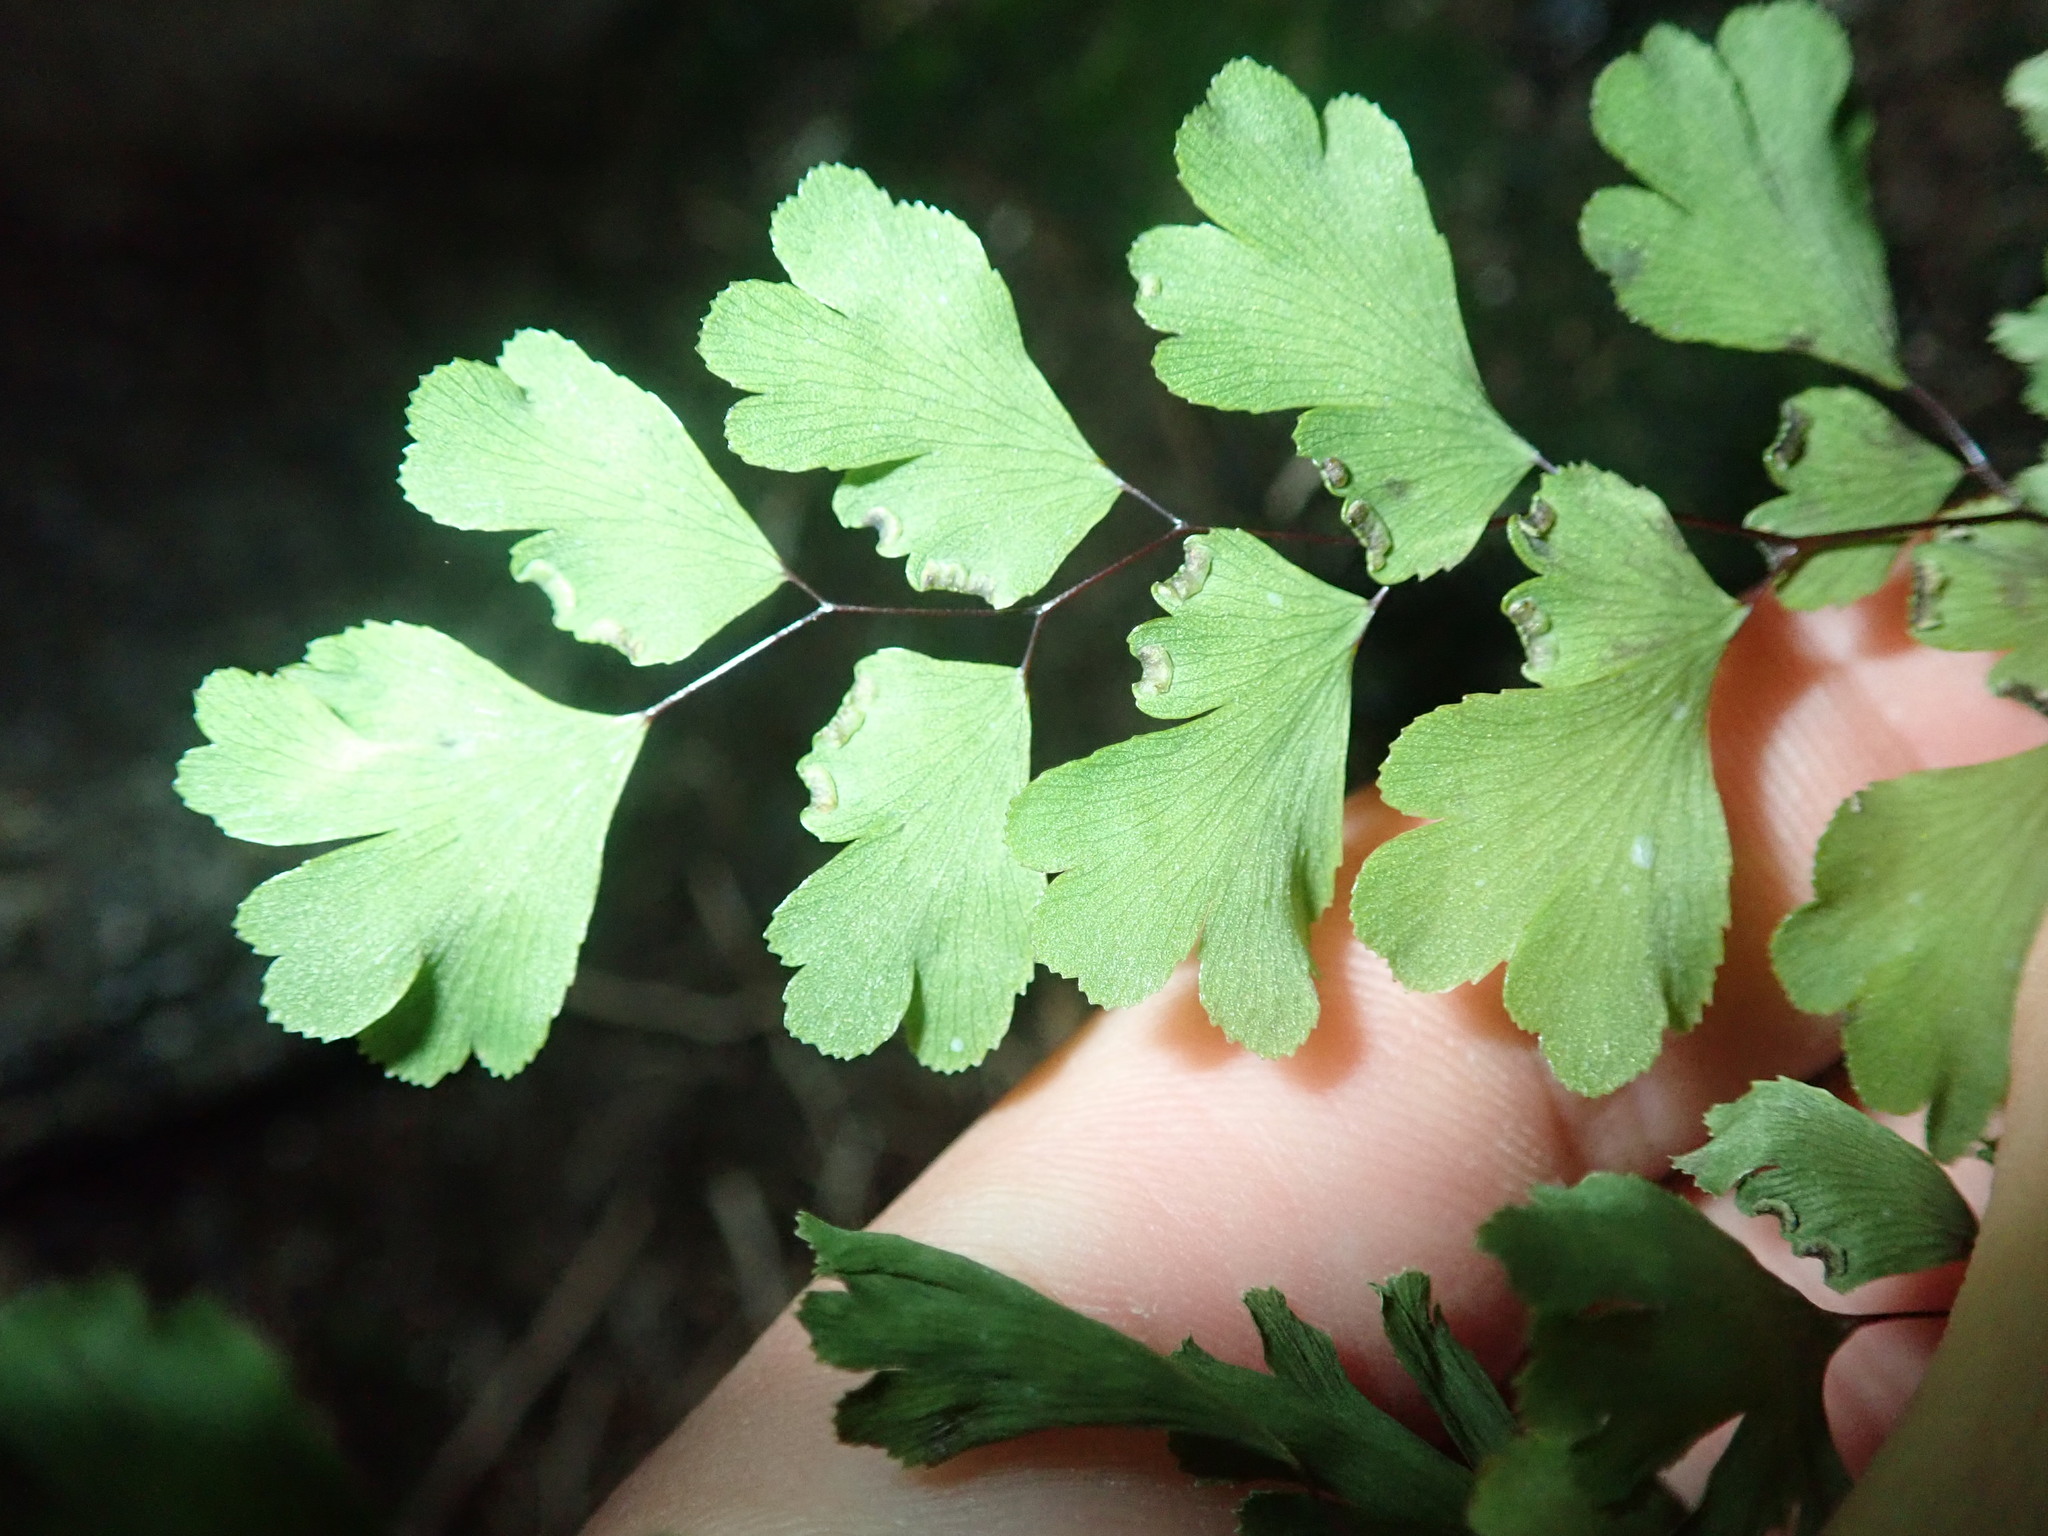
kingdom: Plantae
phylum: Tracheophyta
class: Polypodiopsida
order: Polypodiales
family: Pteridaceae
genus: Adiantum
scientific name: Adiantum capillus-veneris
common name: Maidenhair fern
